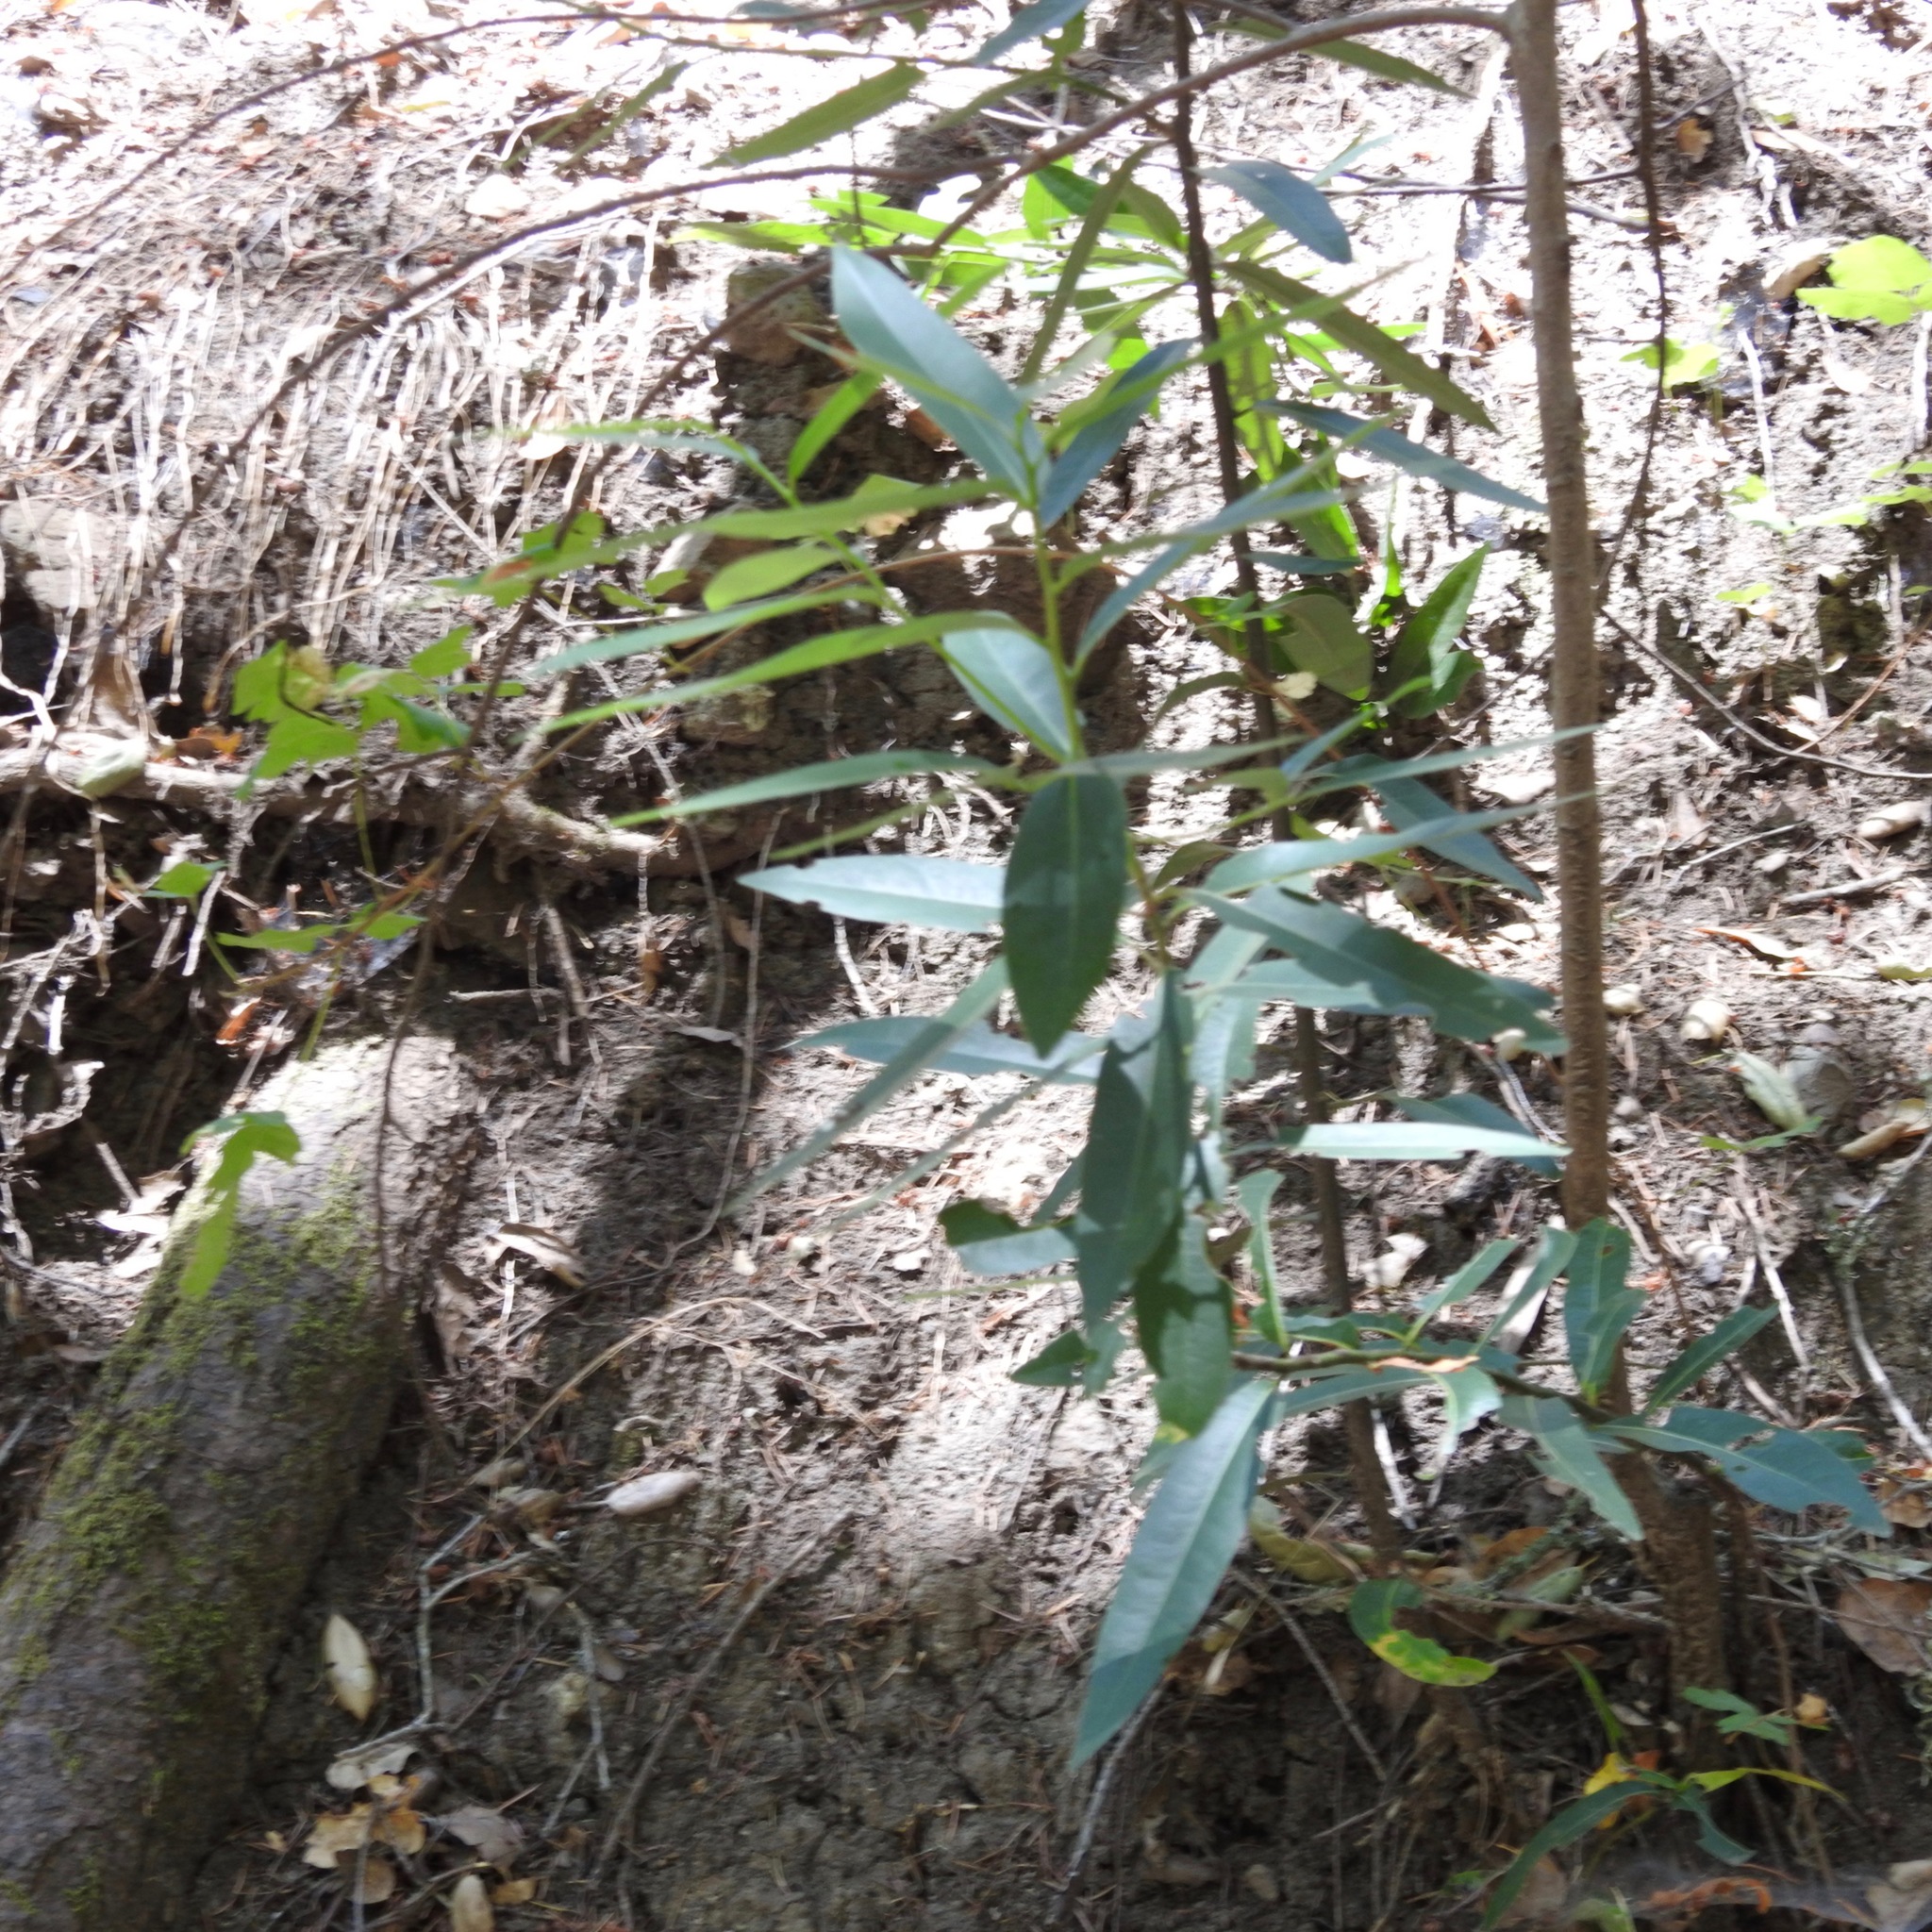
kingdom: Plantae
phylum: Tracheophyta
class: Magnoliopsida
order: Laurales
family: Lauraceae
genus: Umbellularia
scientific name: Umbellularia californica
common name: California bay
